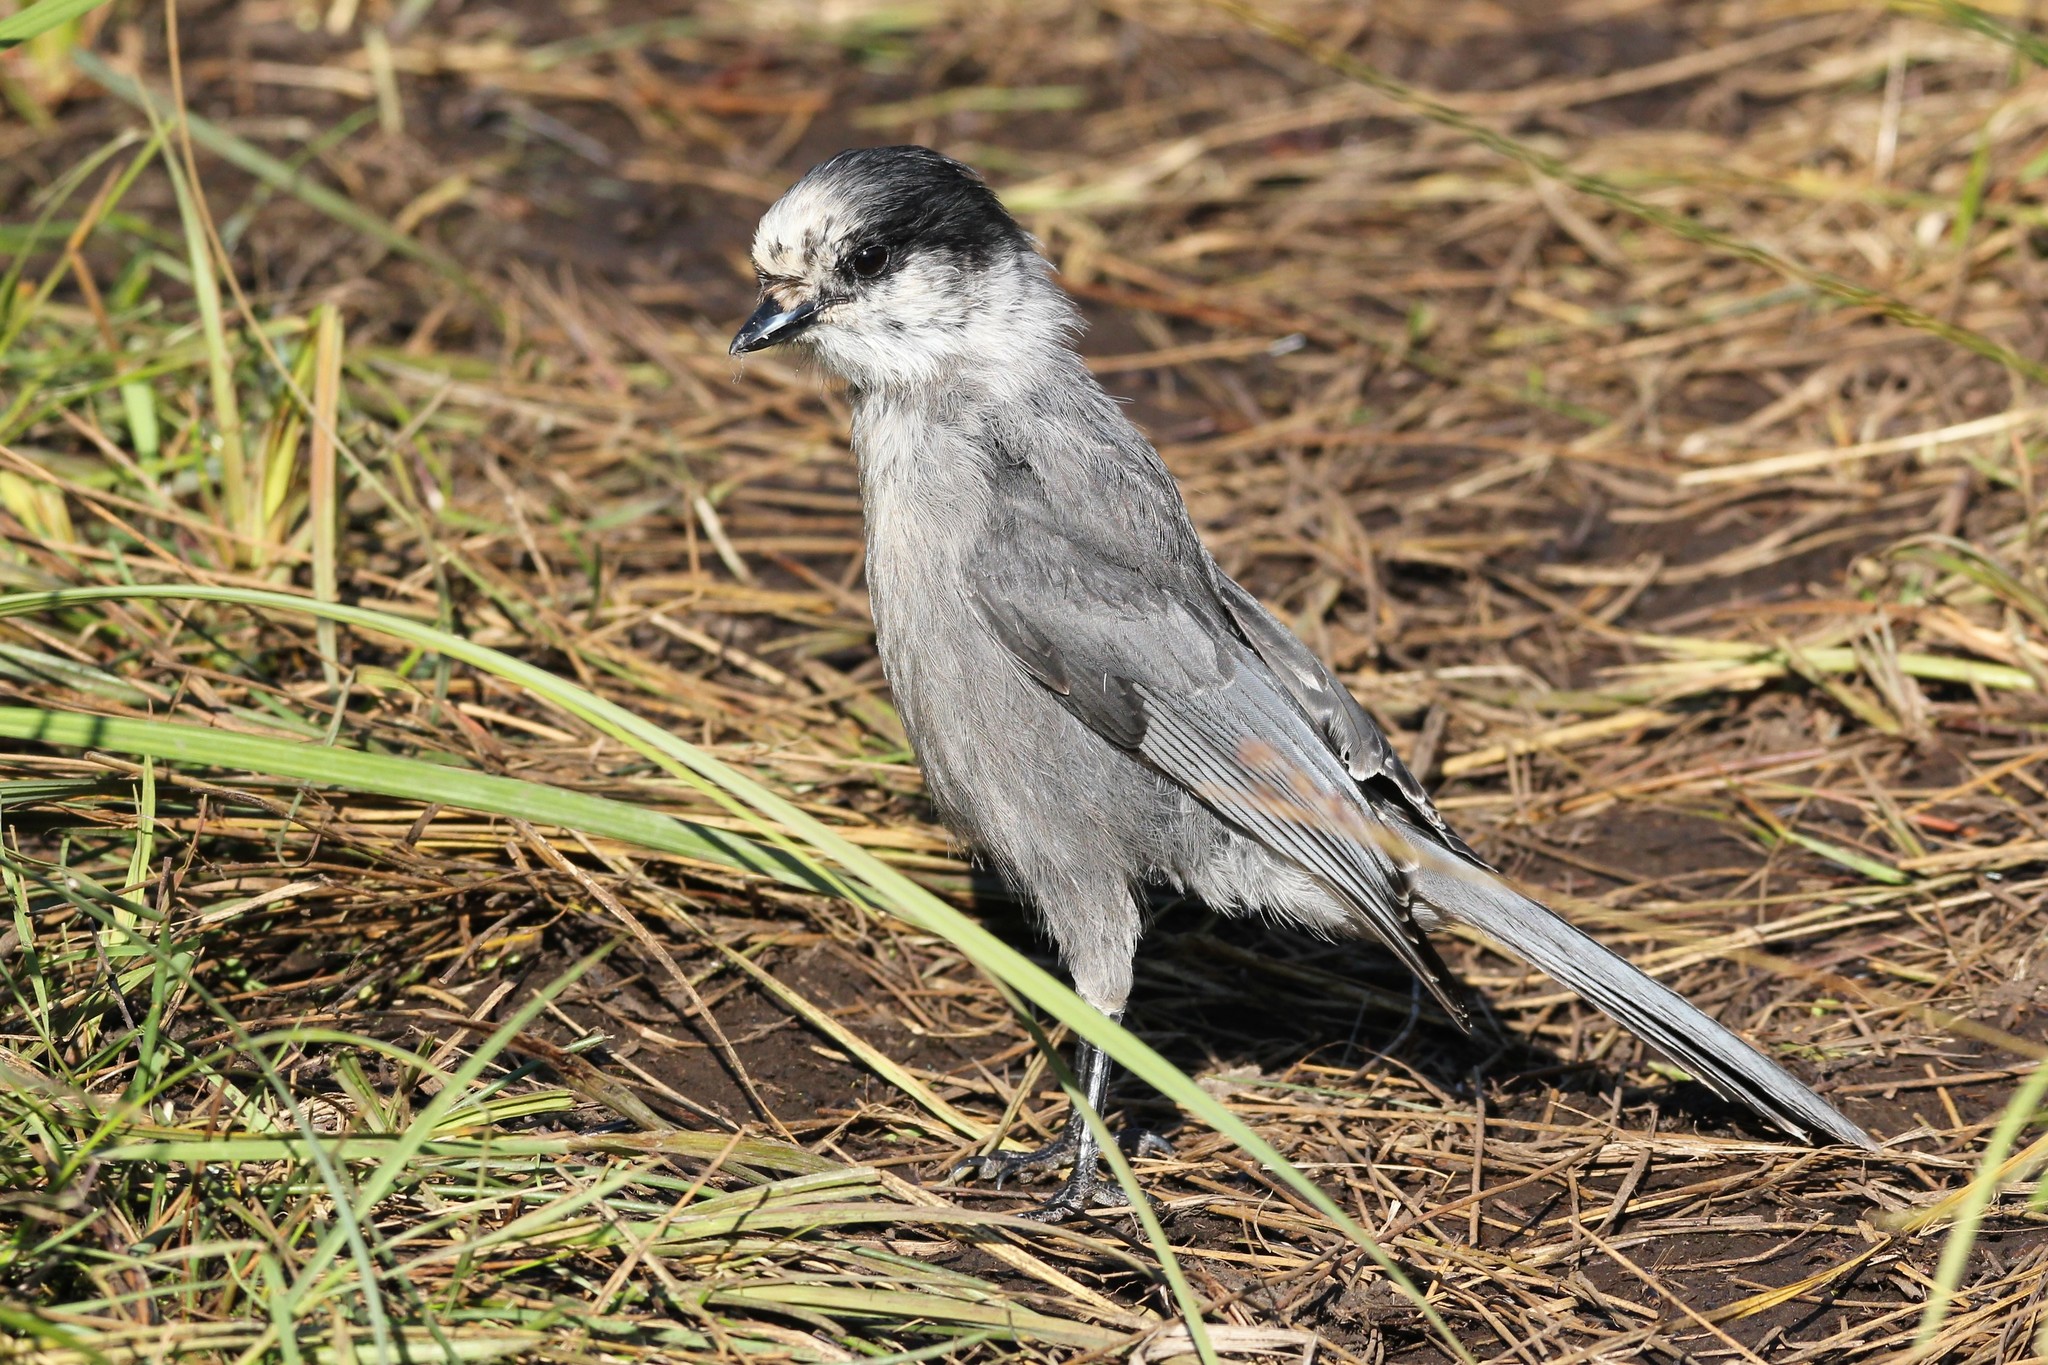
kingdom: Animalia
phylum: Chordata
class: Aves
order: Passeriformes
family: Corvidae
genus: Perisoreus
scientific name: Perisoreus canadensis
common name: Gray jay
